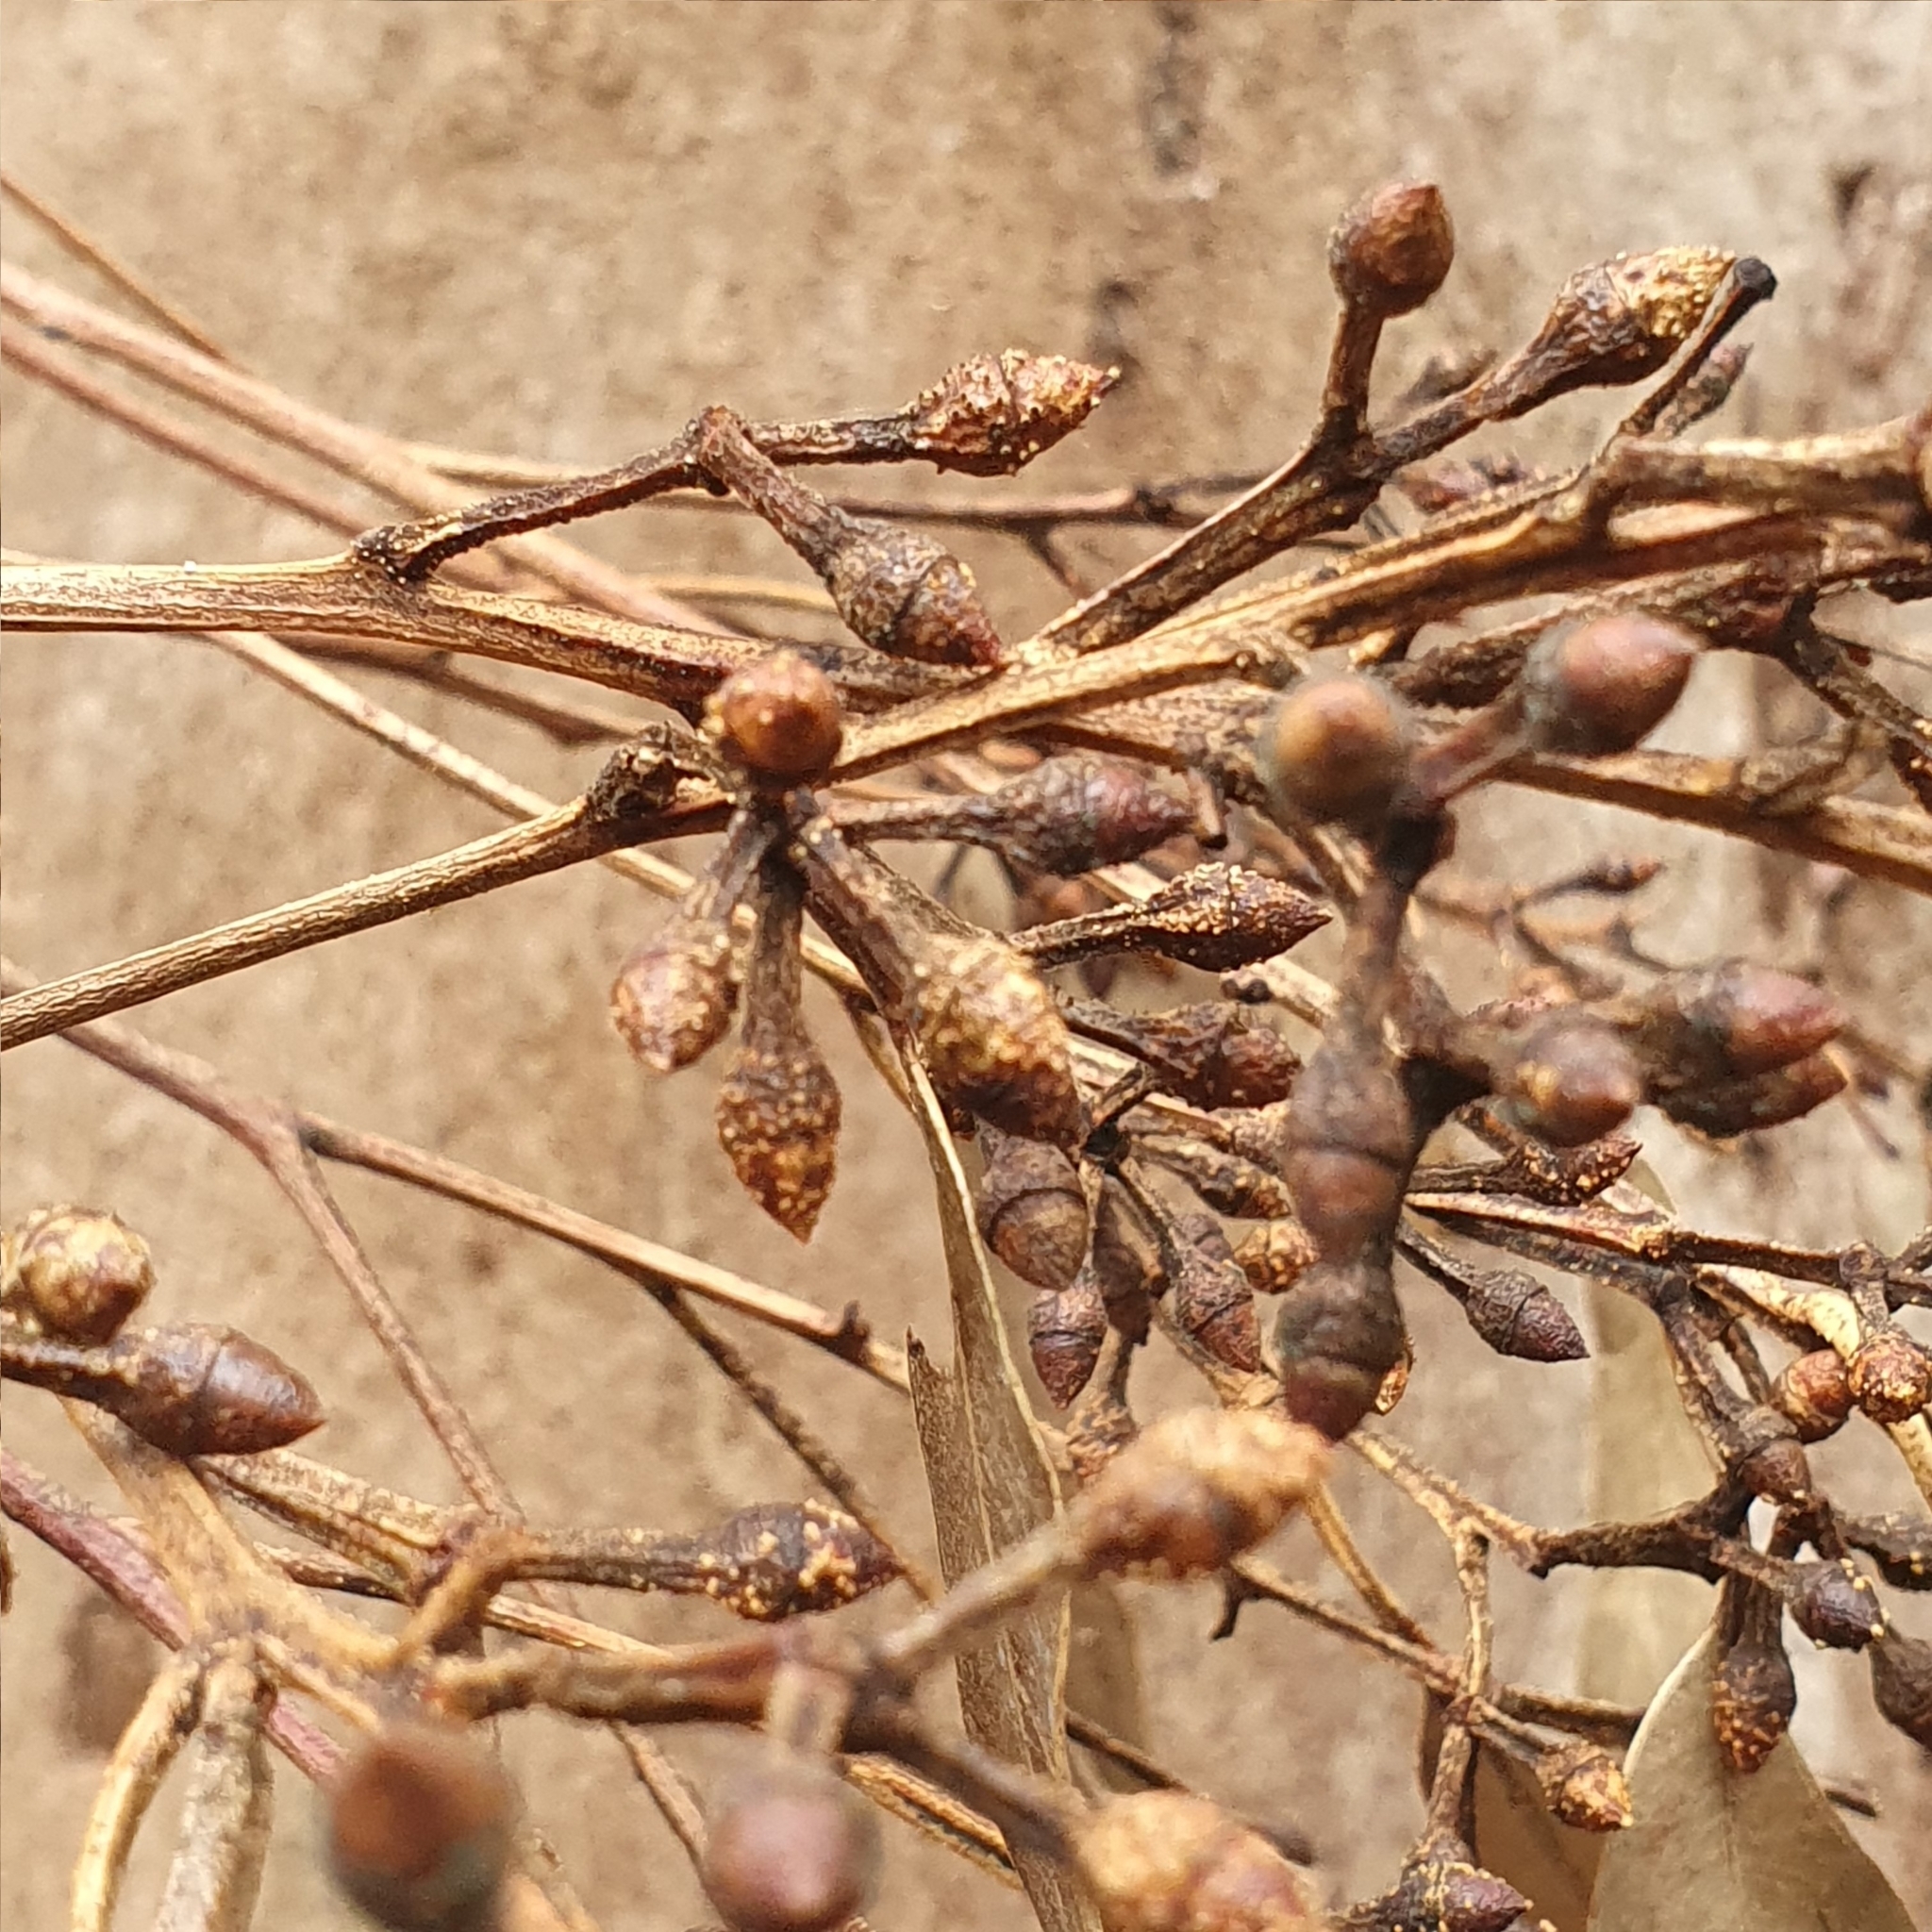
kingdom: Plantae
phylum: Tracheophyta
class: Magnoliopsida
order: Myrtales
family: Myrtaceae
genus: Eucalyptus
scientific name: Eucalyptus punctata
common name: Gray gum
